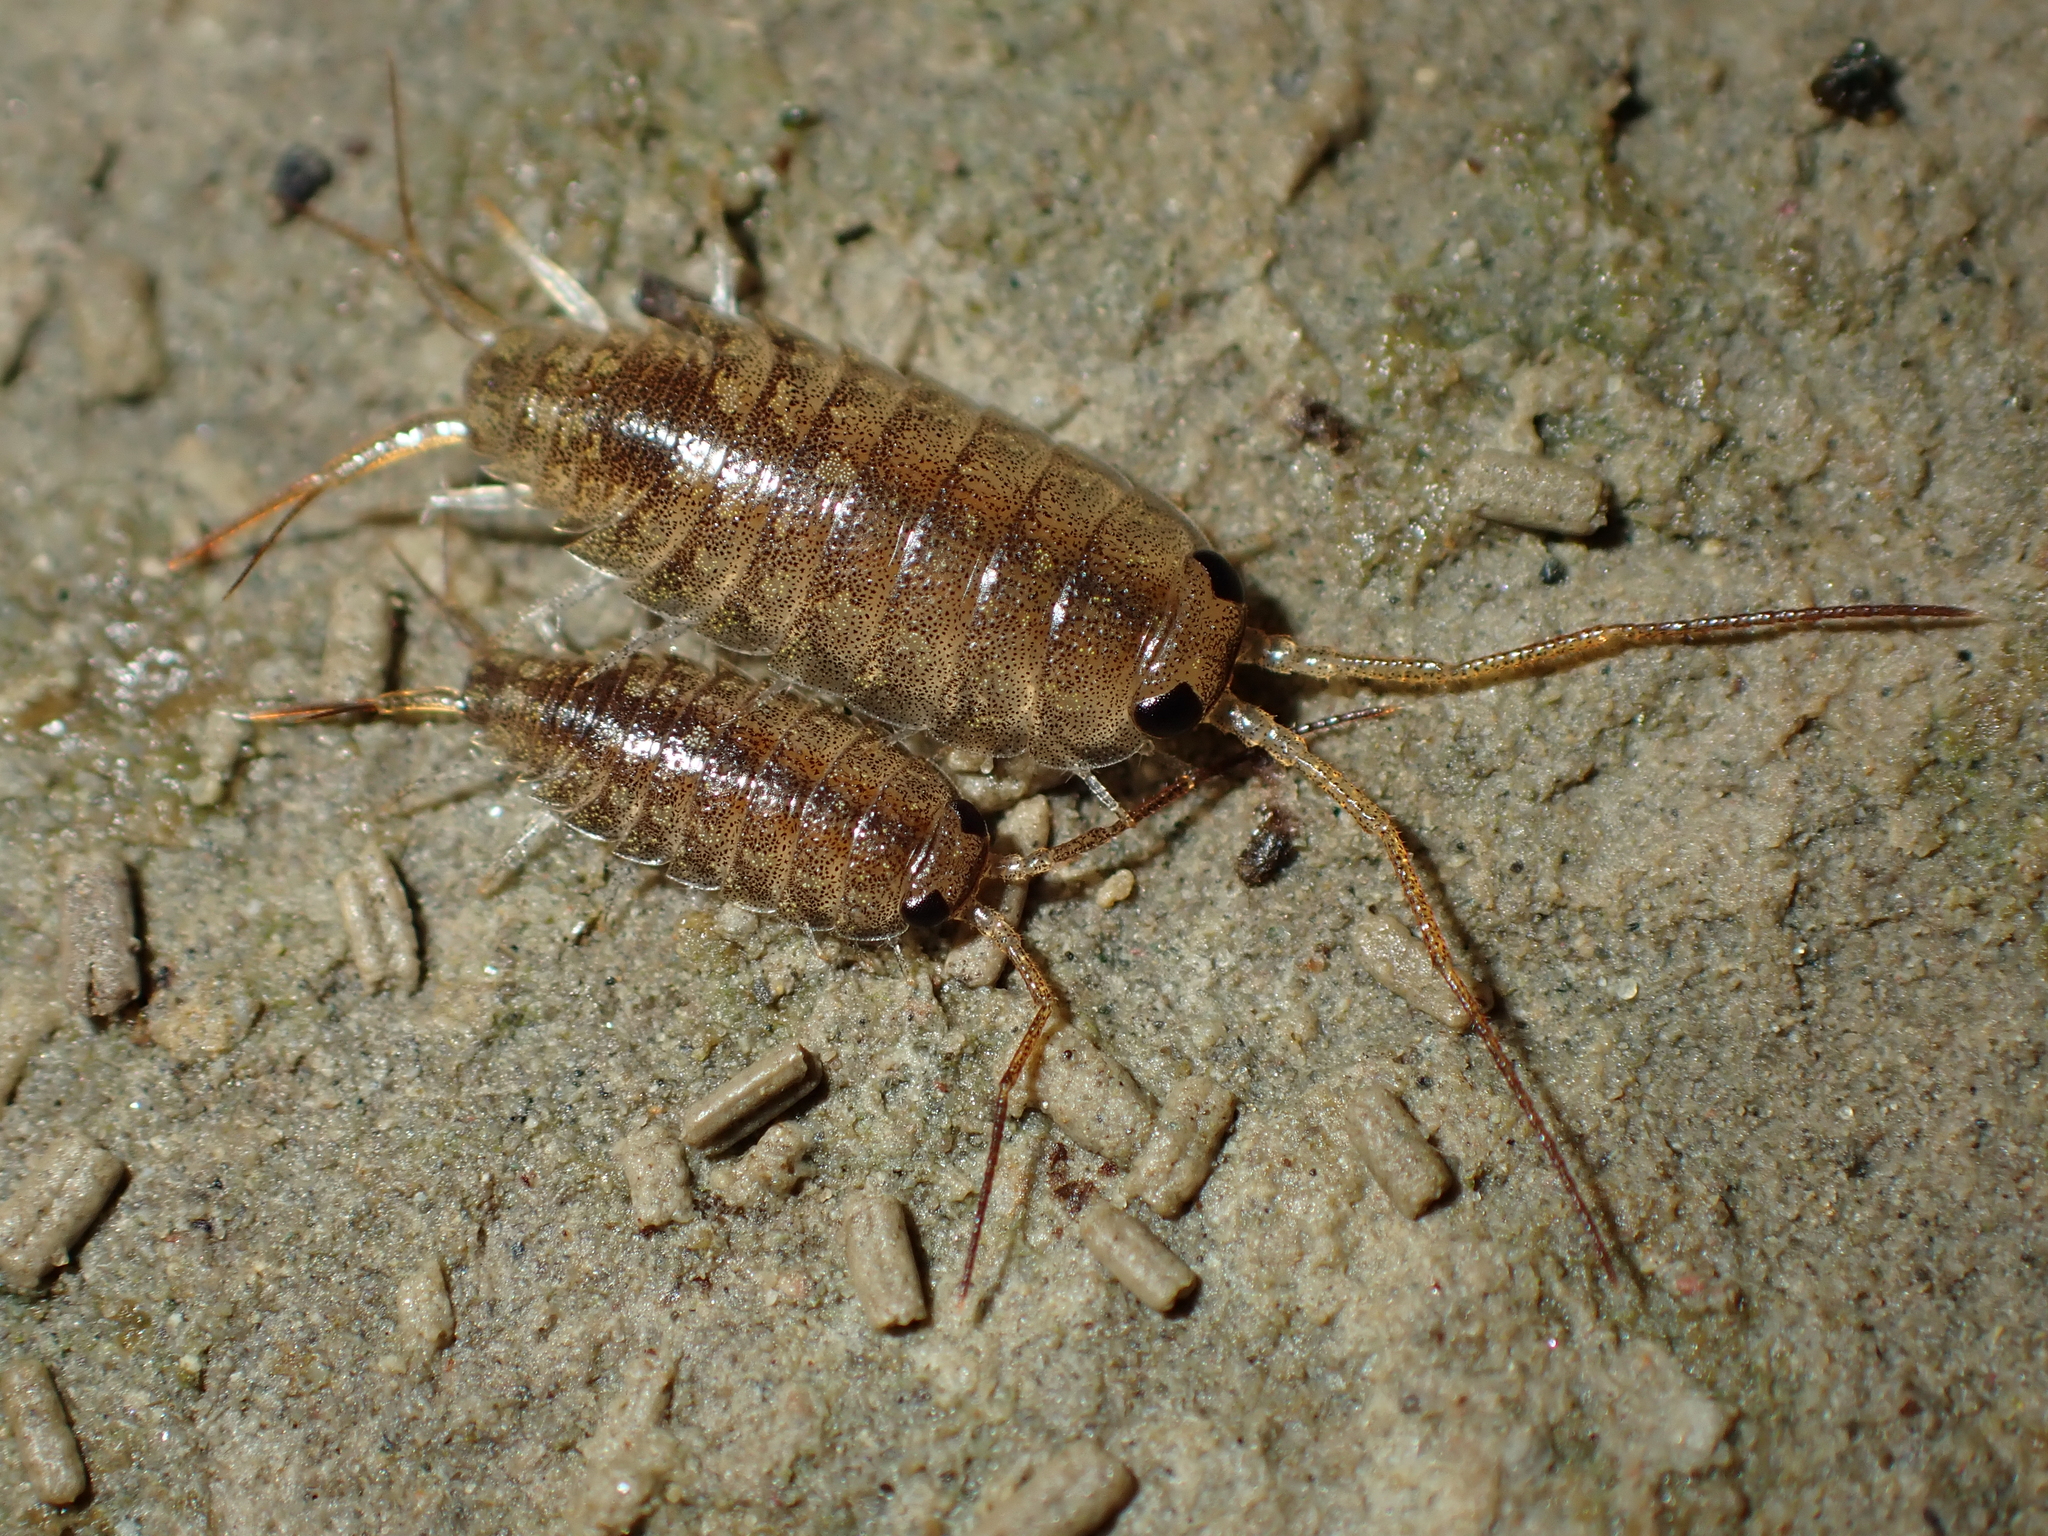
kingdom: Animalia
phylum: Arthropoda
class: Malacostraca
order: Isopoda
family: Ligiidae
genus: Ligia
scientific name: Ligia novizealandiae
